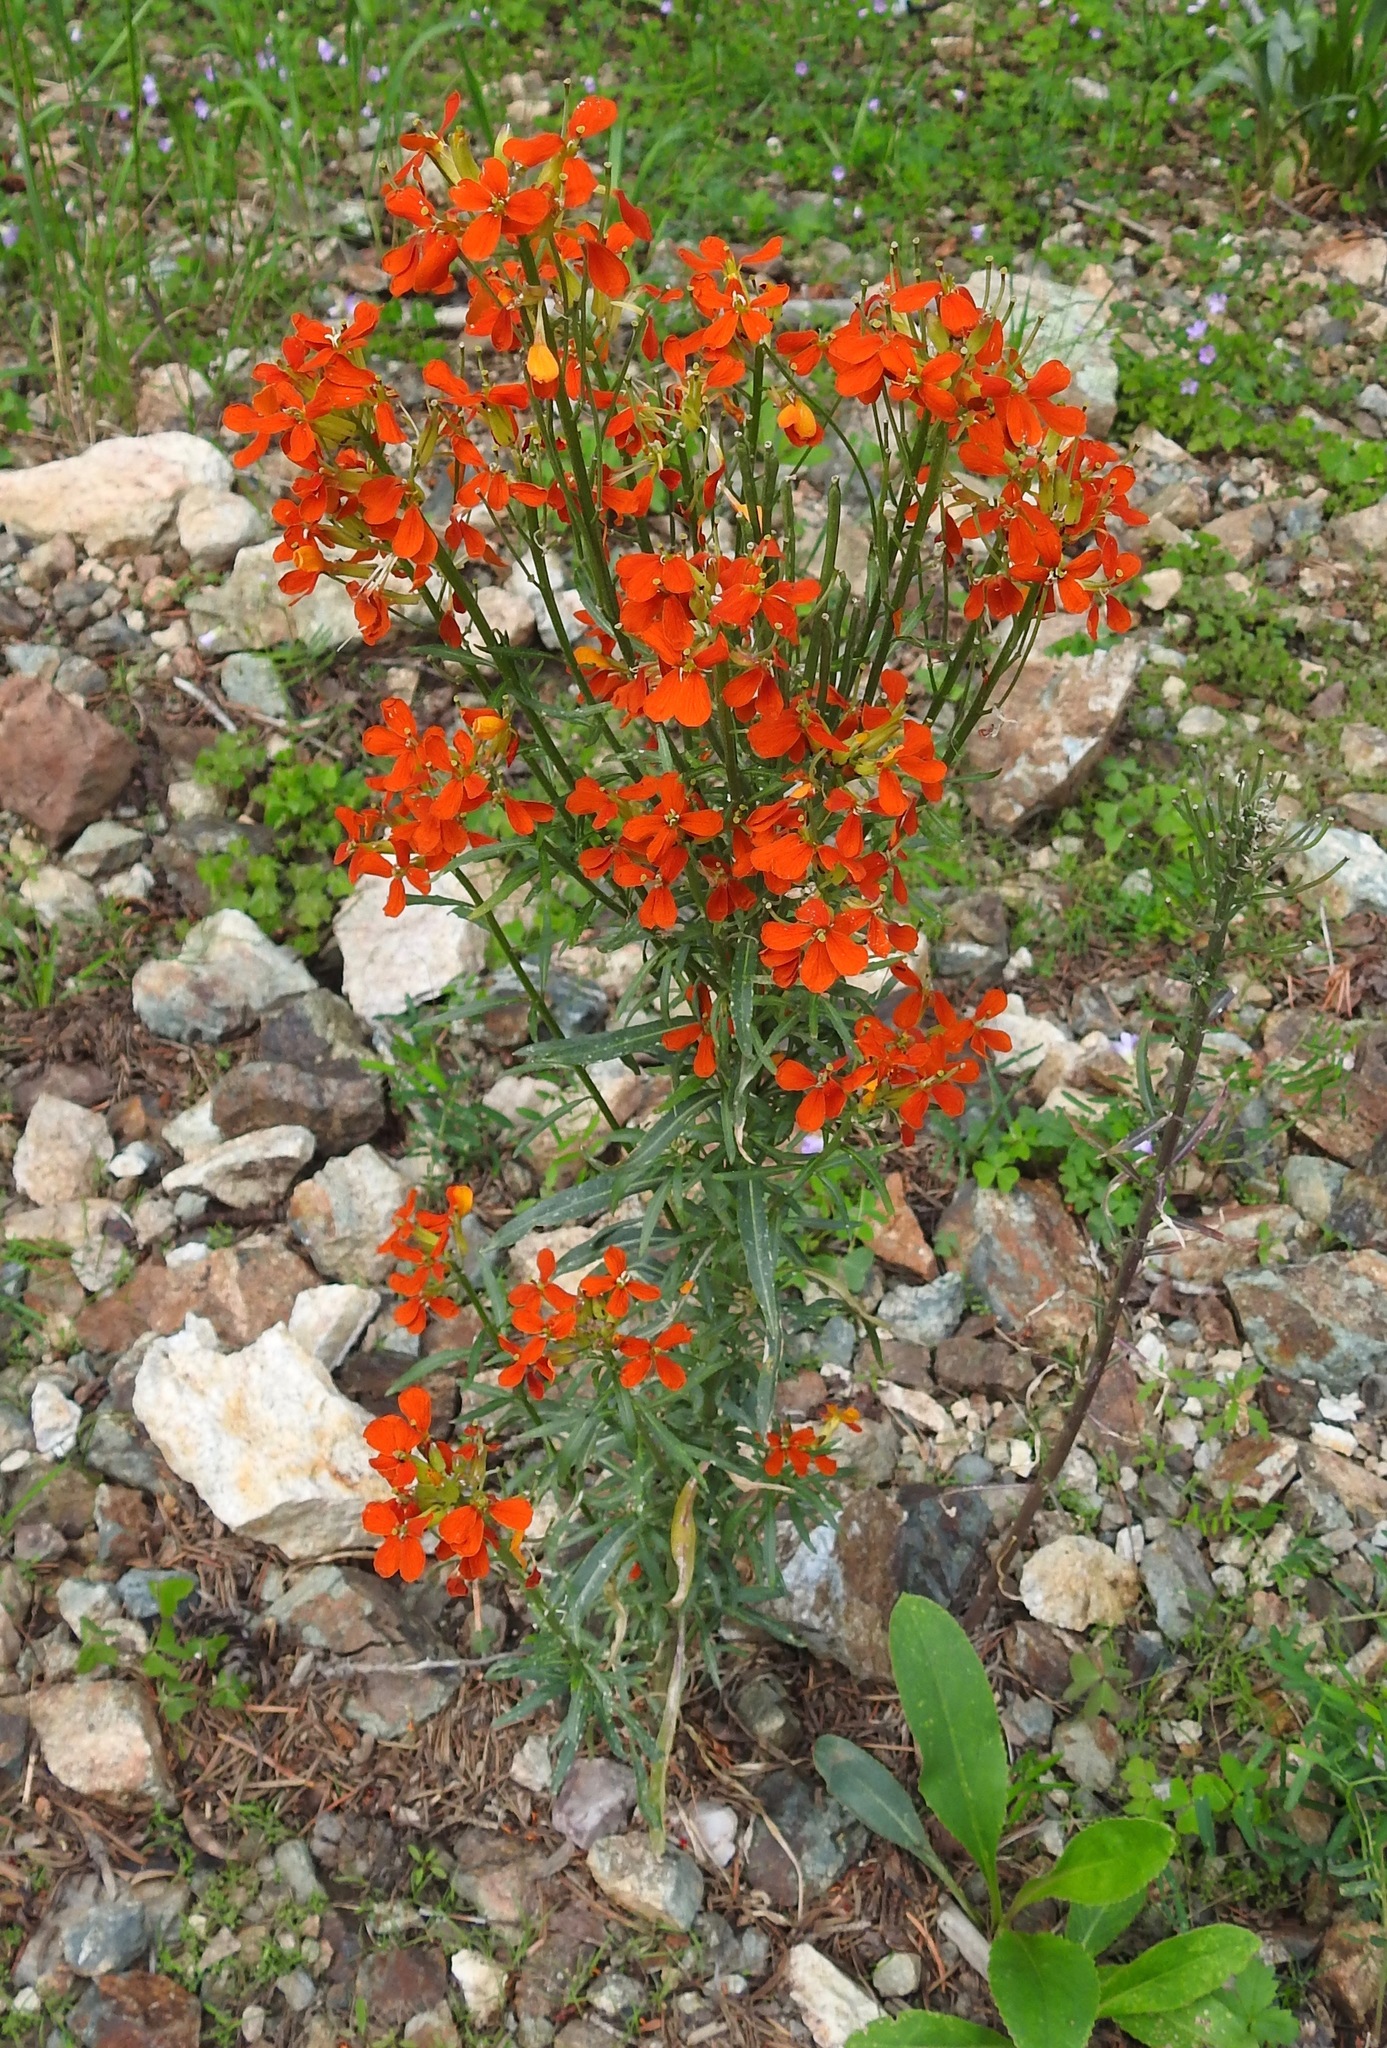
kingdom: Plantae
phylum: Tracheophyta
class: Magnoliopsida
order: Brassicales
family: Brassicaceae
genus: Erysimum
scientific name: Erysimum capitatum
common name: Western wallflower
